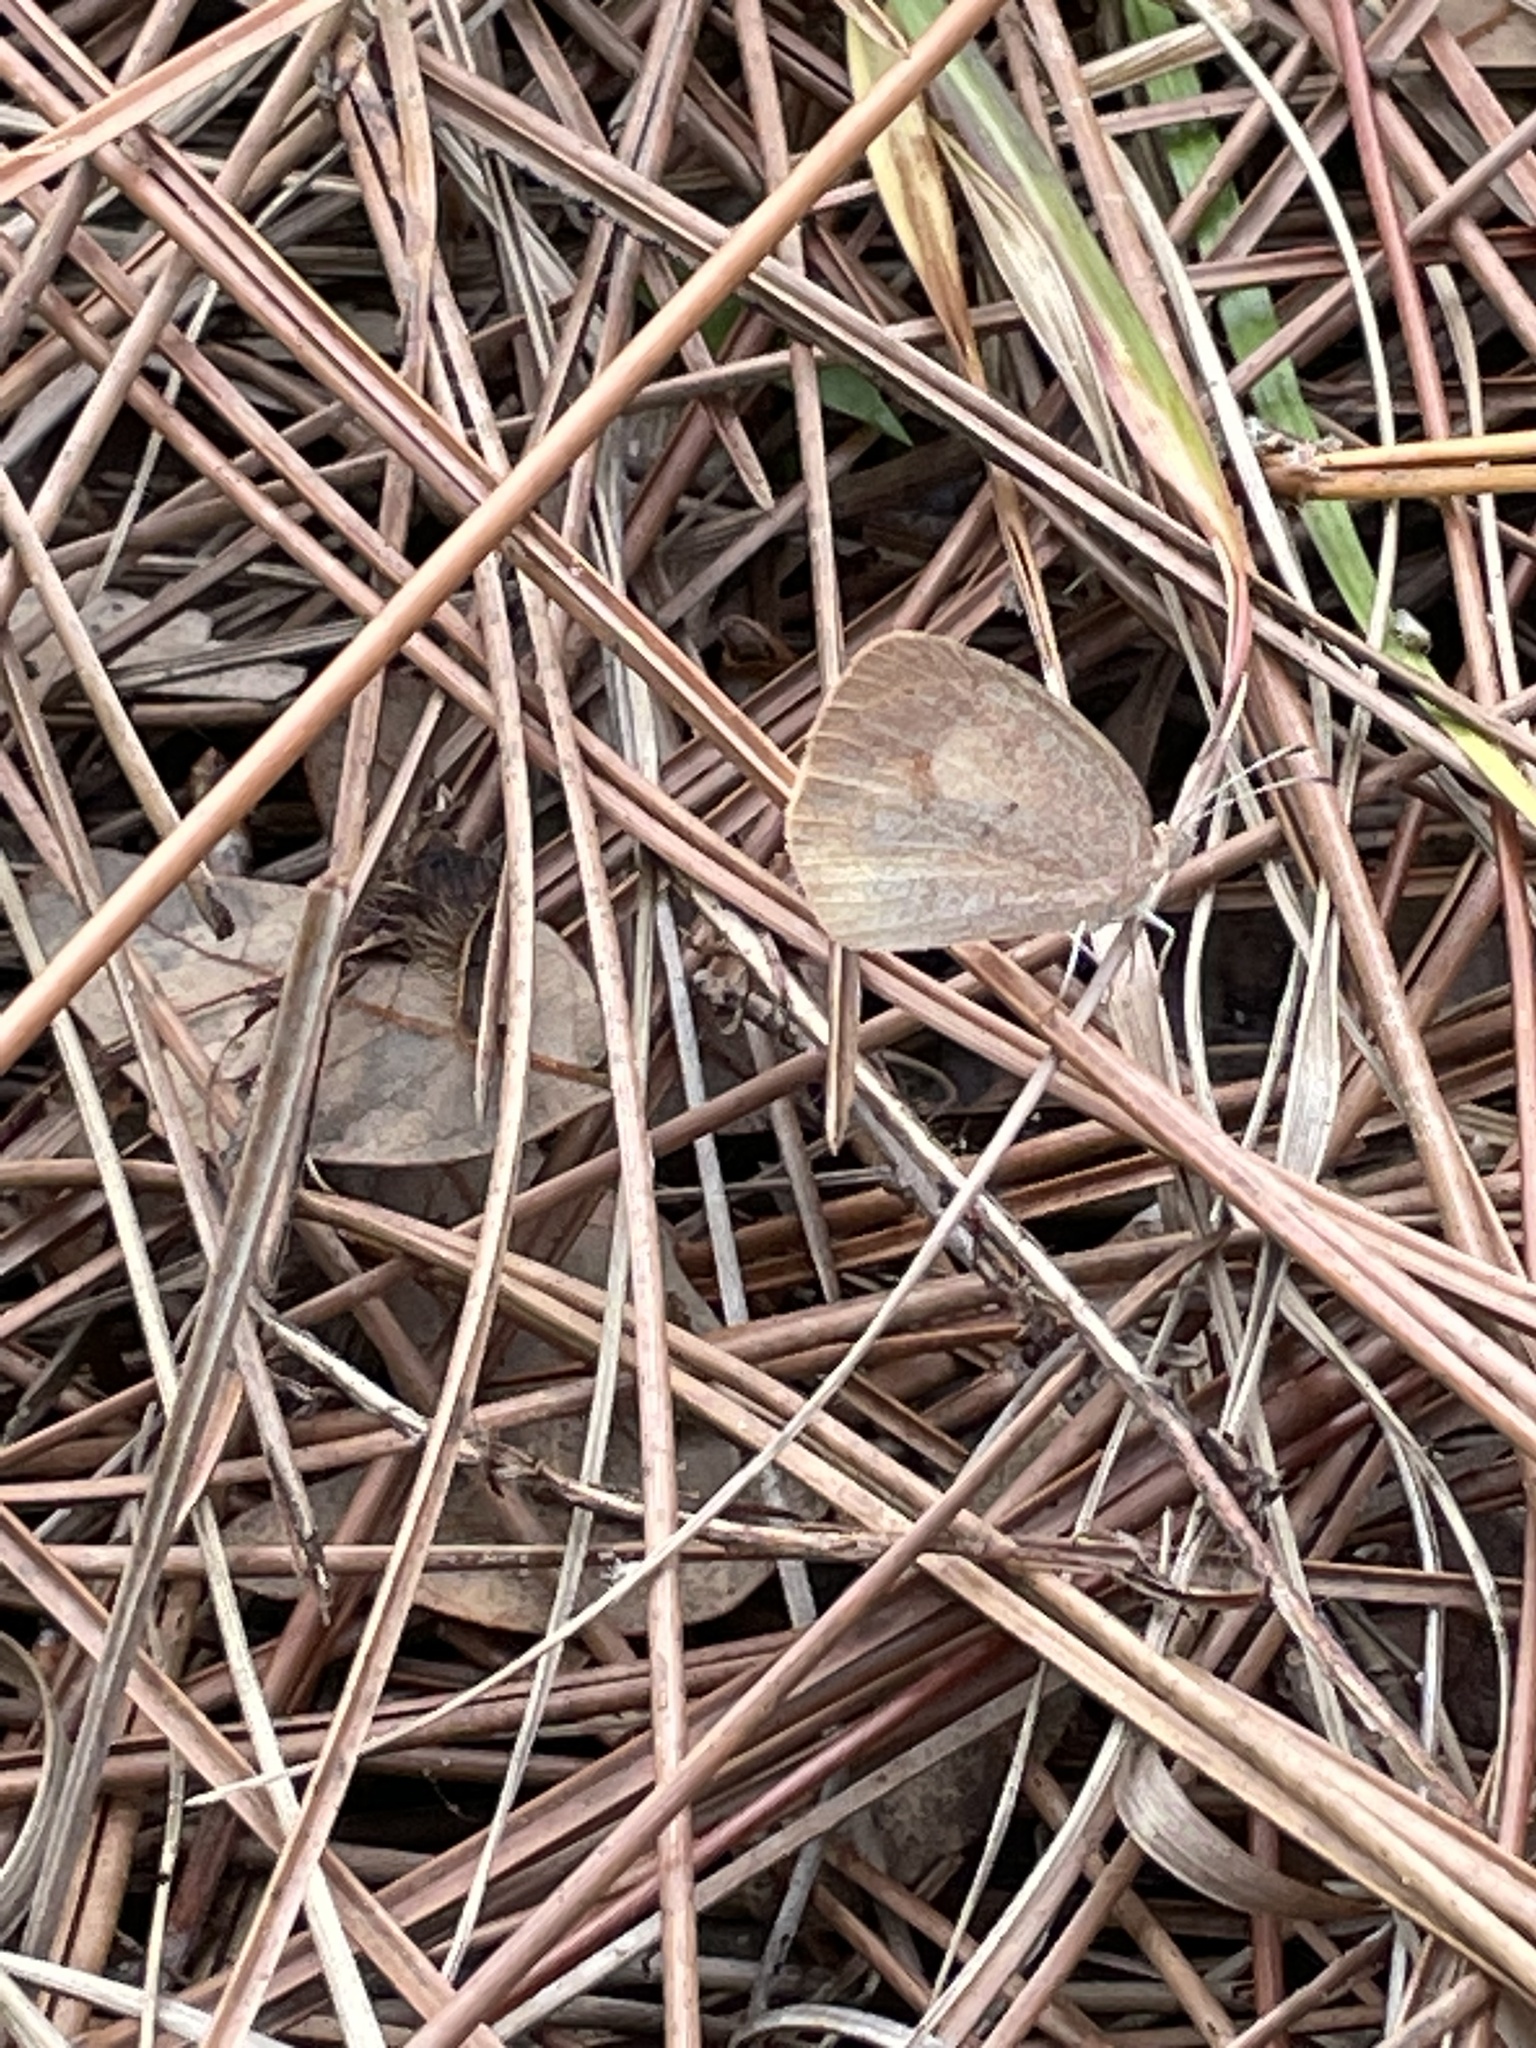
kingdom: Animalia
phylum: Arthropoda
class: Insecta
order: Lepidoptera
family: Pieridae
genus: Eurema
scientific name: Eurema daira
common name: Barred sulphur
